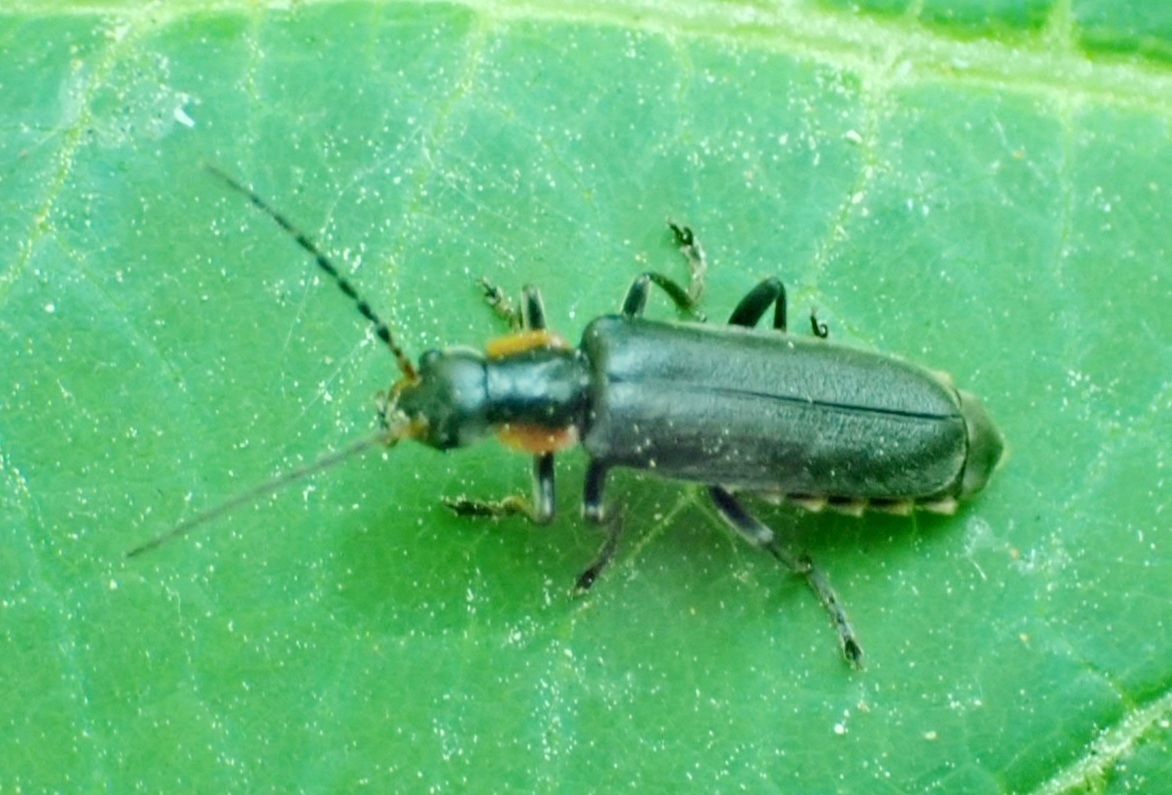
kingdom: Animalia
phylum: Arthropoda
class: Insecta
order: Coleoptera
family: Cantharidae
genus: Cantharis
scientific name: Cantharis obscura
